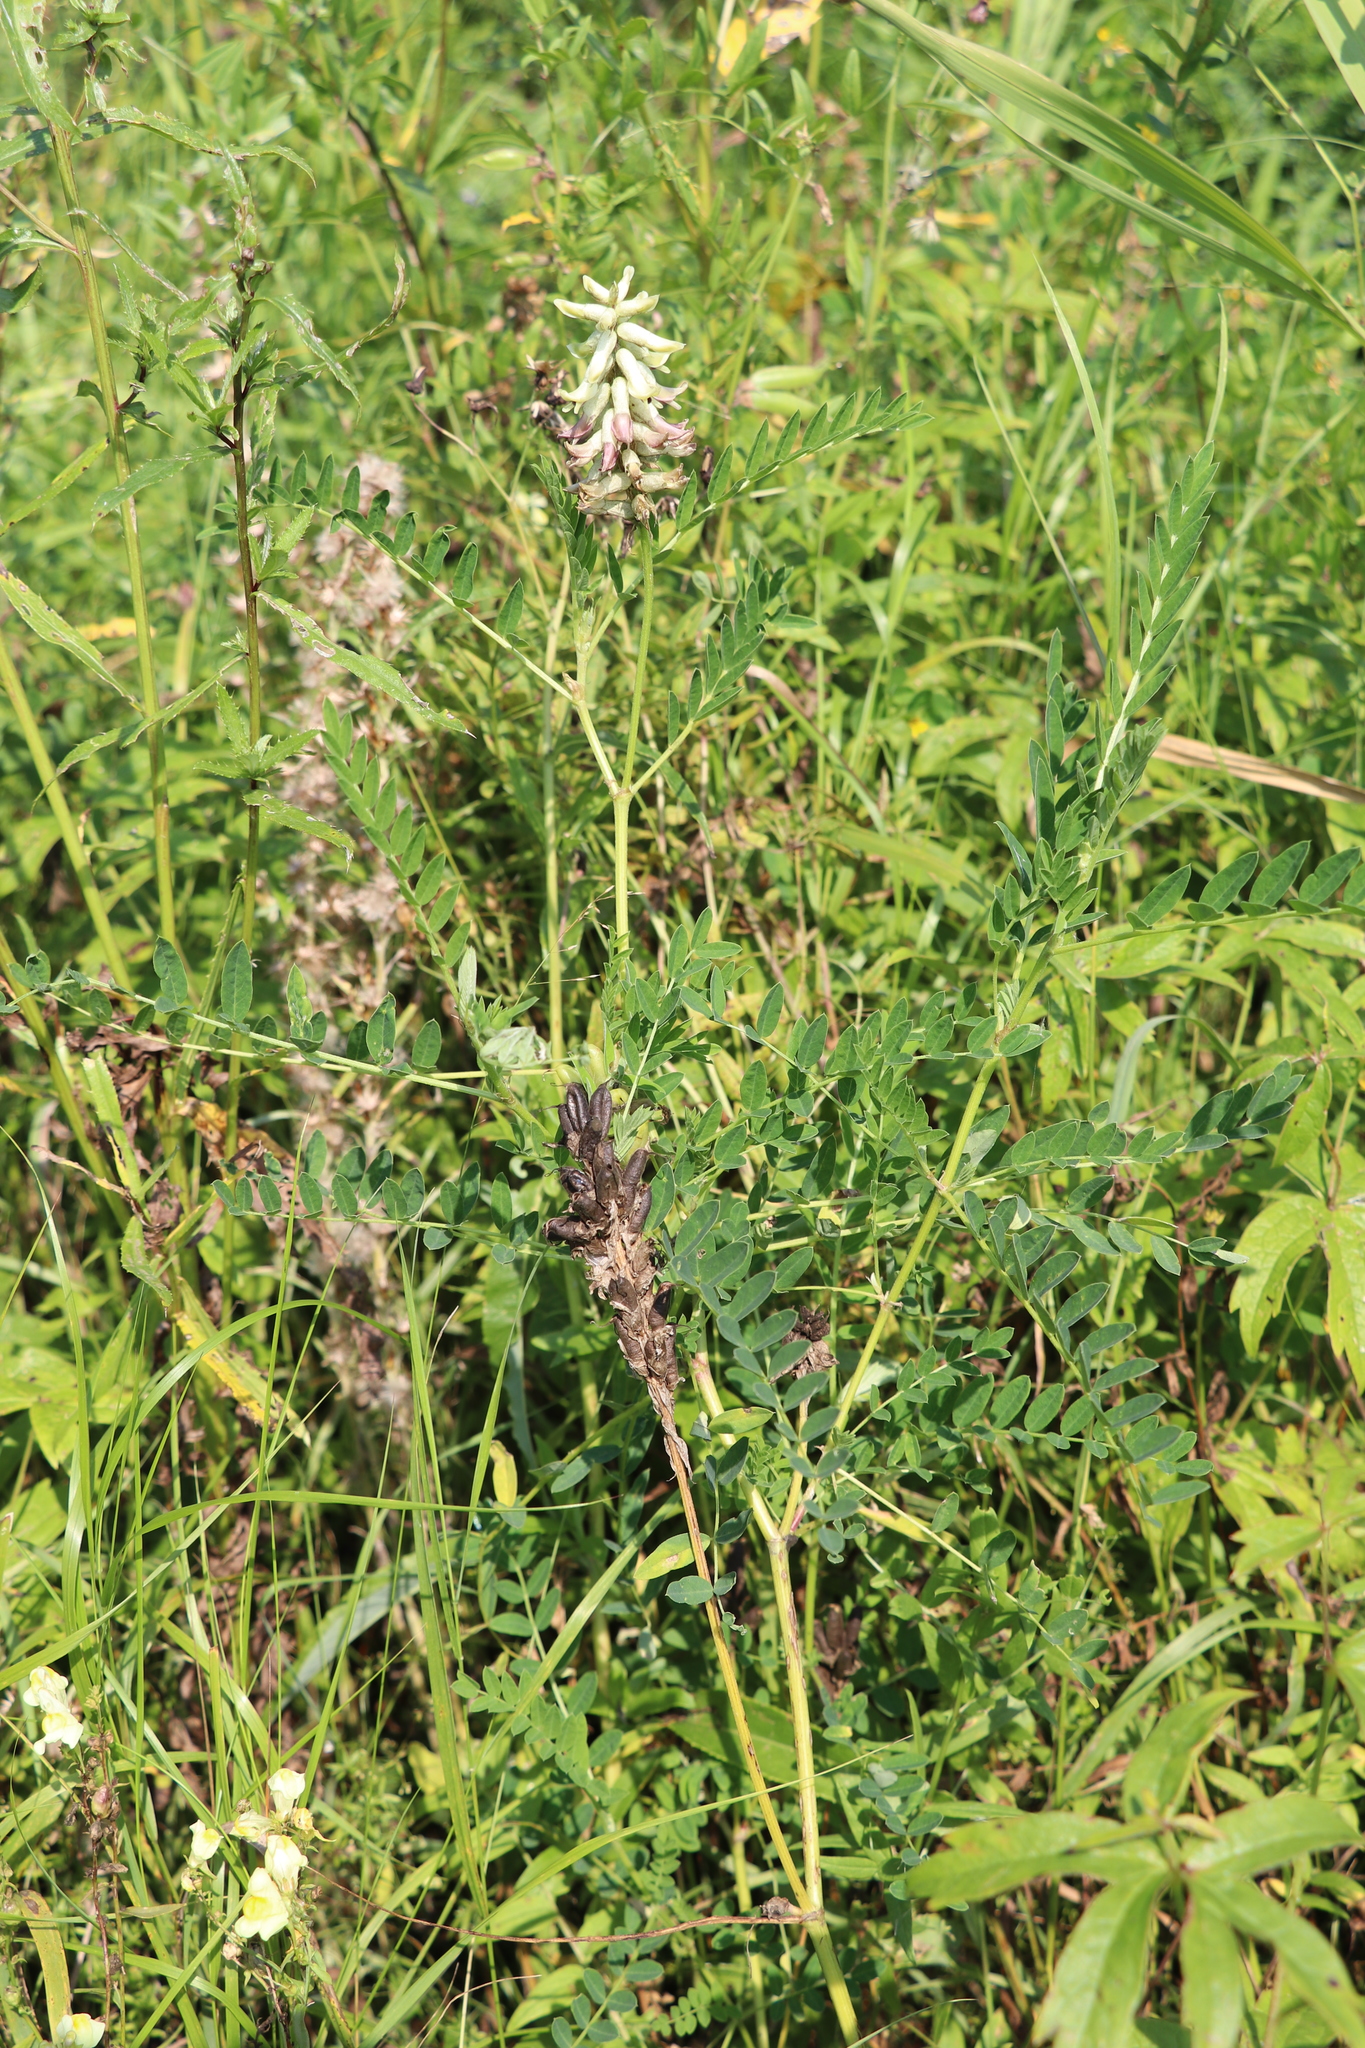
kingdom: Plantae
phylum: Tracheophyta
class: Magnoliopsida
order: Fabales
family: Fabaceae
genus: Astragalus
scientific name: Astragalus uliginosus
